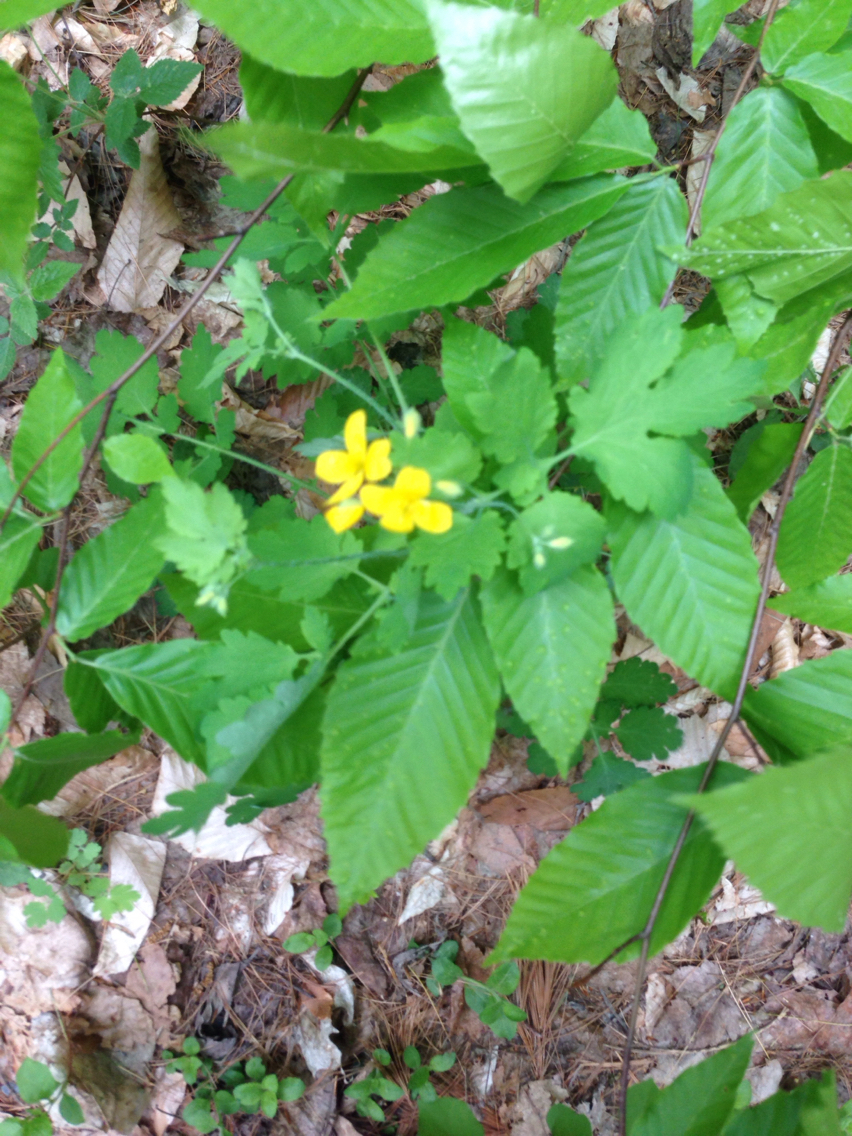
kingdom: Plantae
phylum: Tracheophyta
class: Magnoliopsida
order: Ranunculales
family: Papaveraceae
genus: Chelidonium
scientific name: Chelidonium majus
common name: Greater celandine
